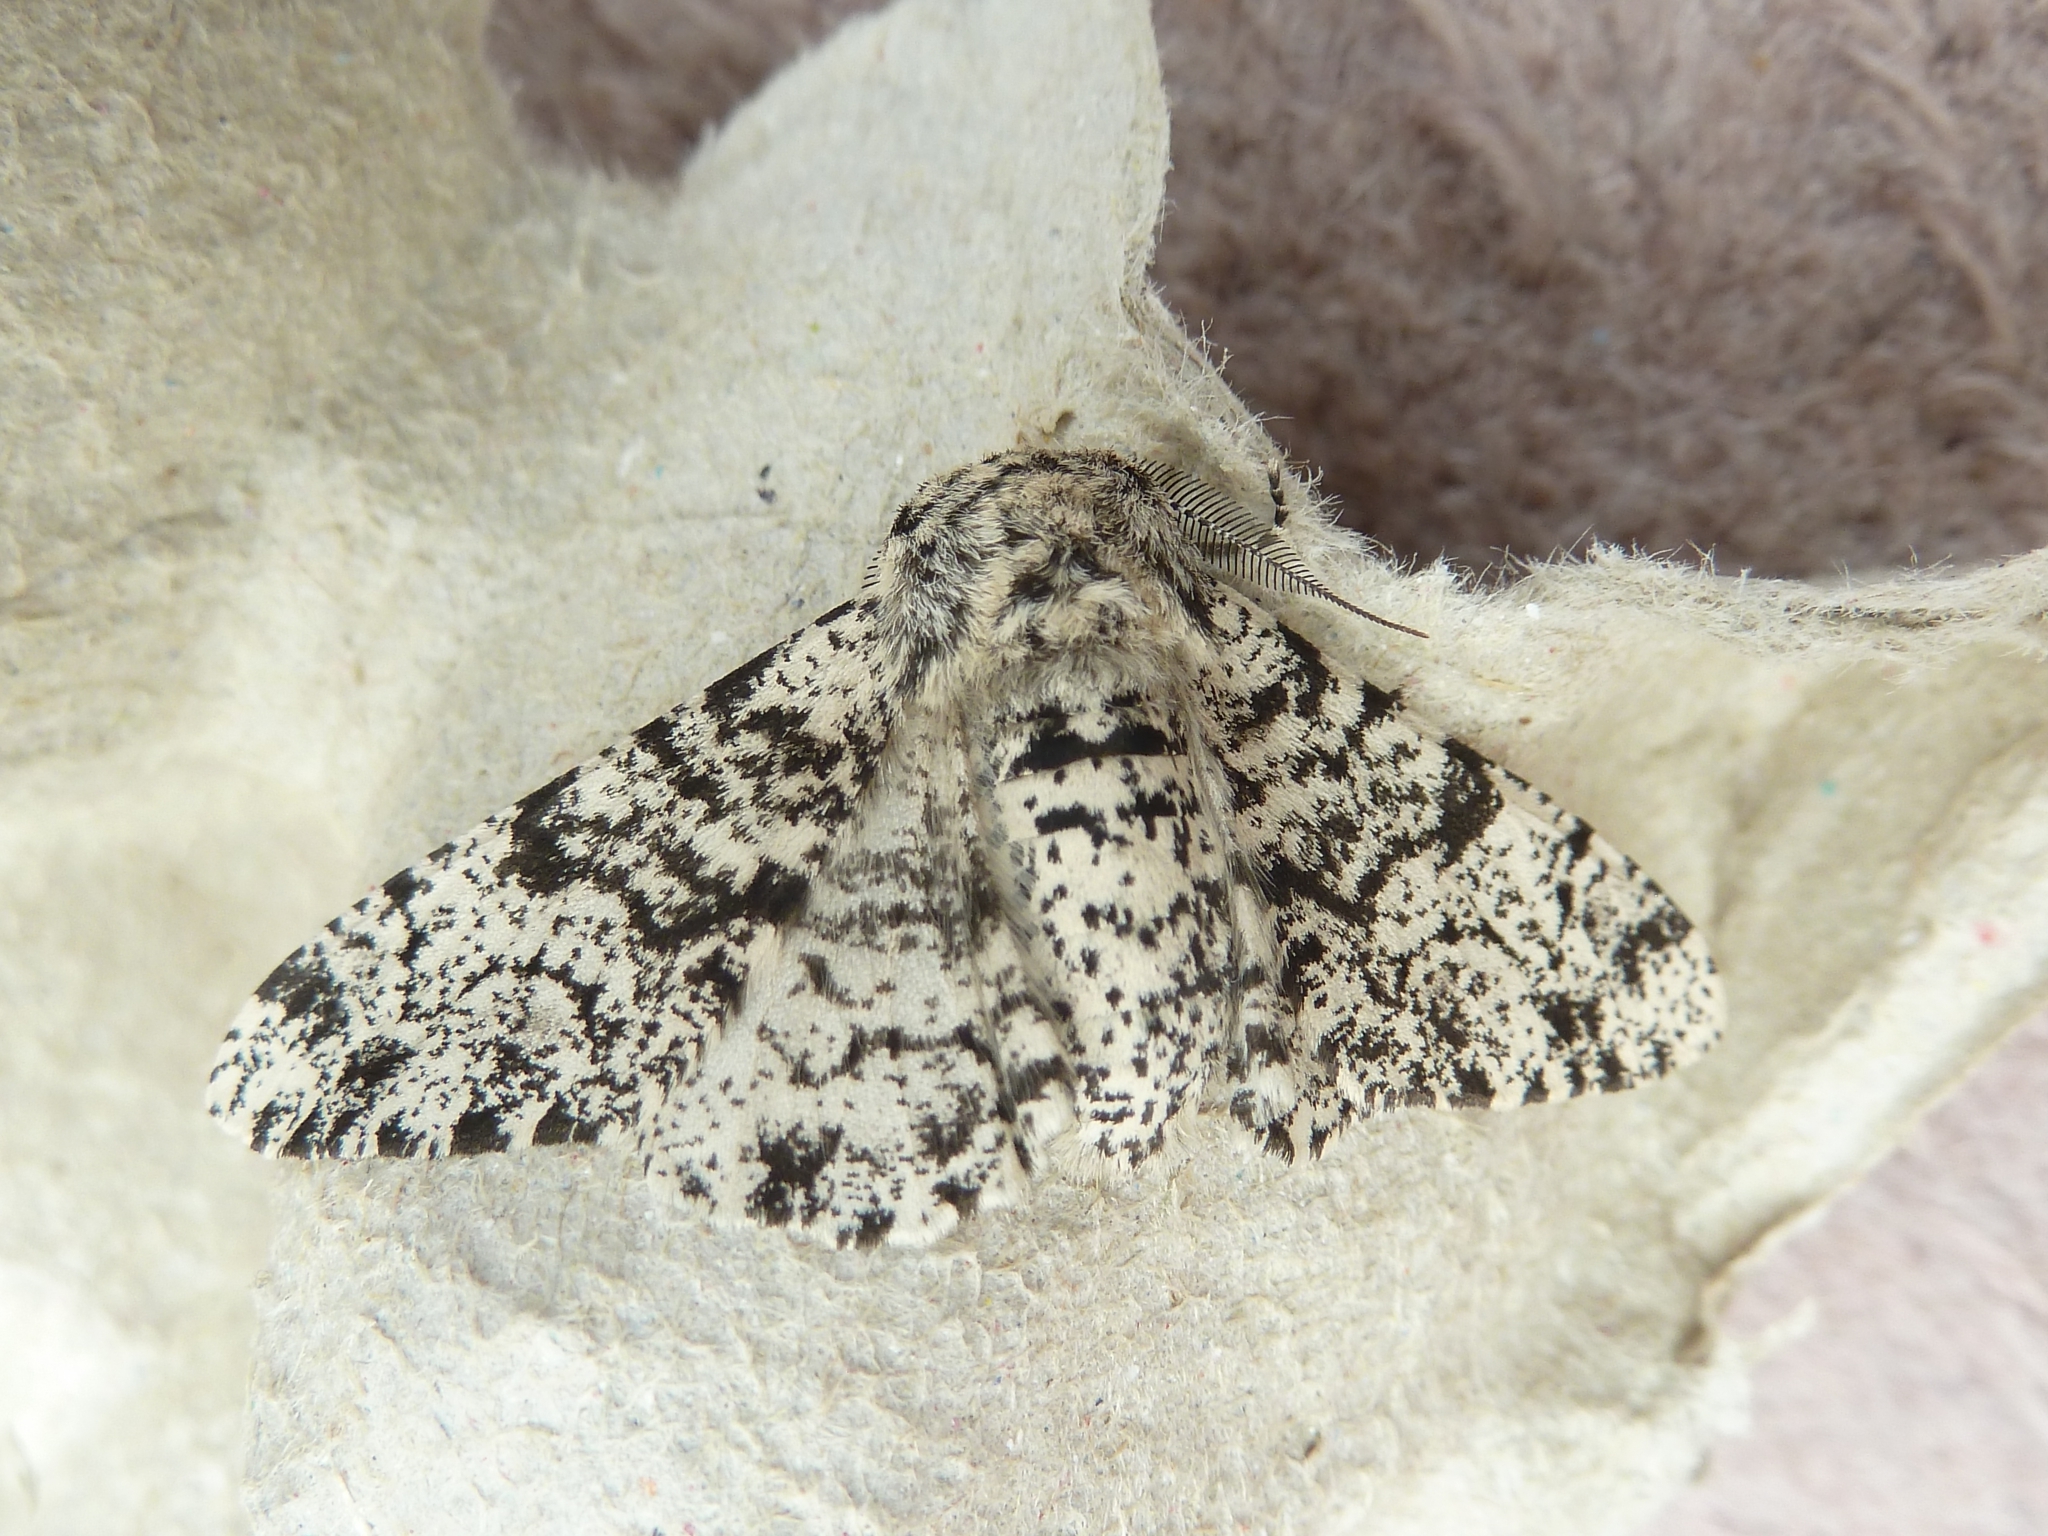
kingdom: Animalia
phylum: Arthropoda
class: Insecta
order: Lepidoptera
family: Geometridae
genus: Biston
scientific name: Biston betularia
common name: Peppered moth
